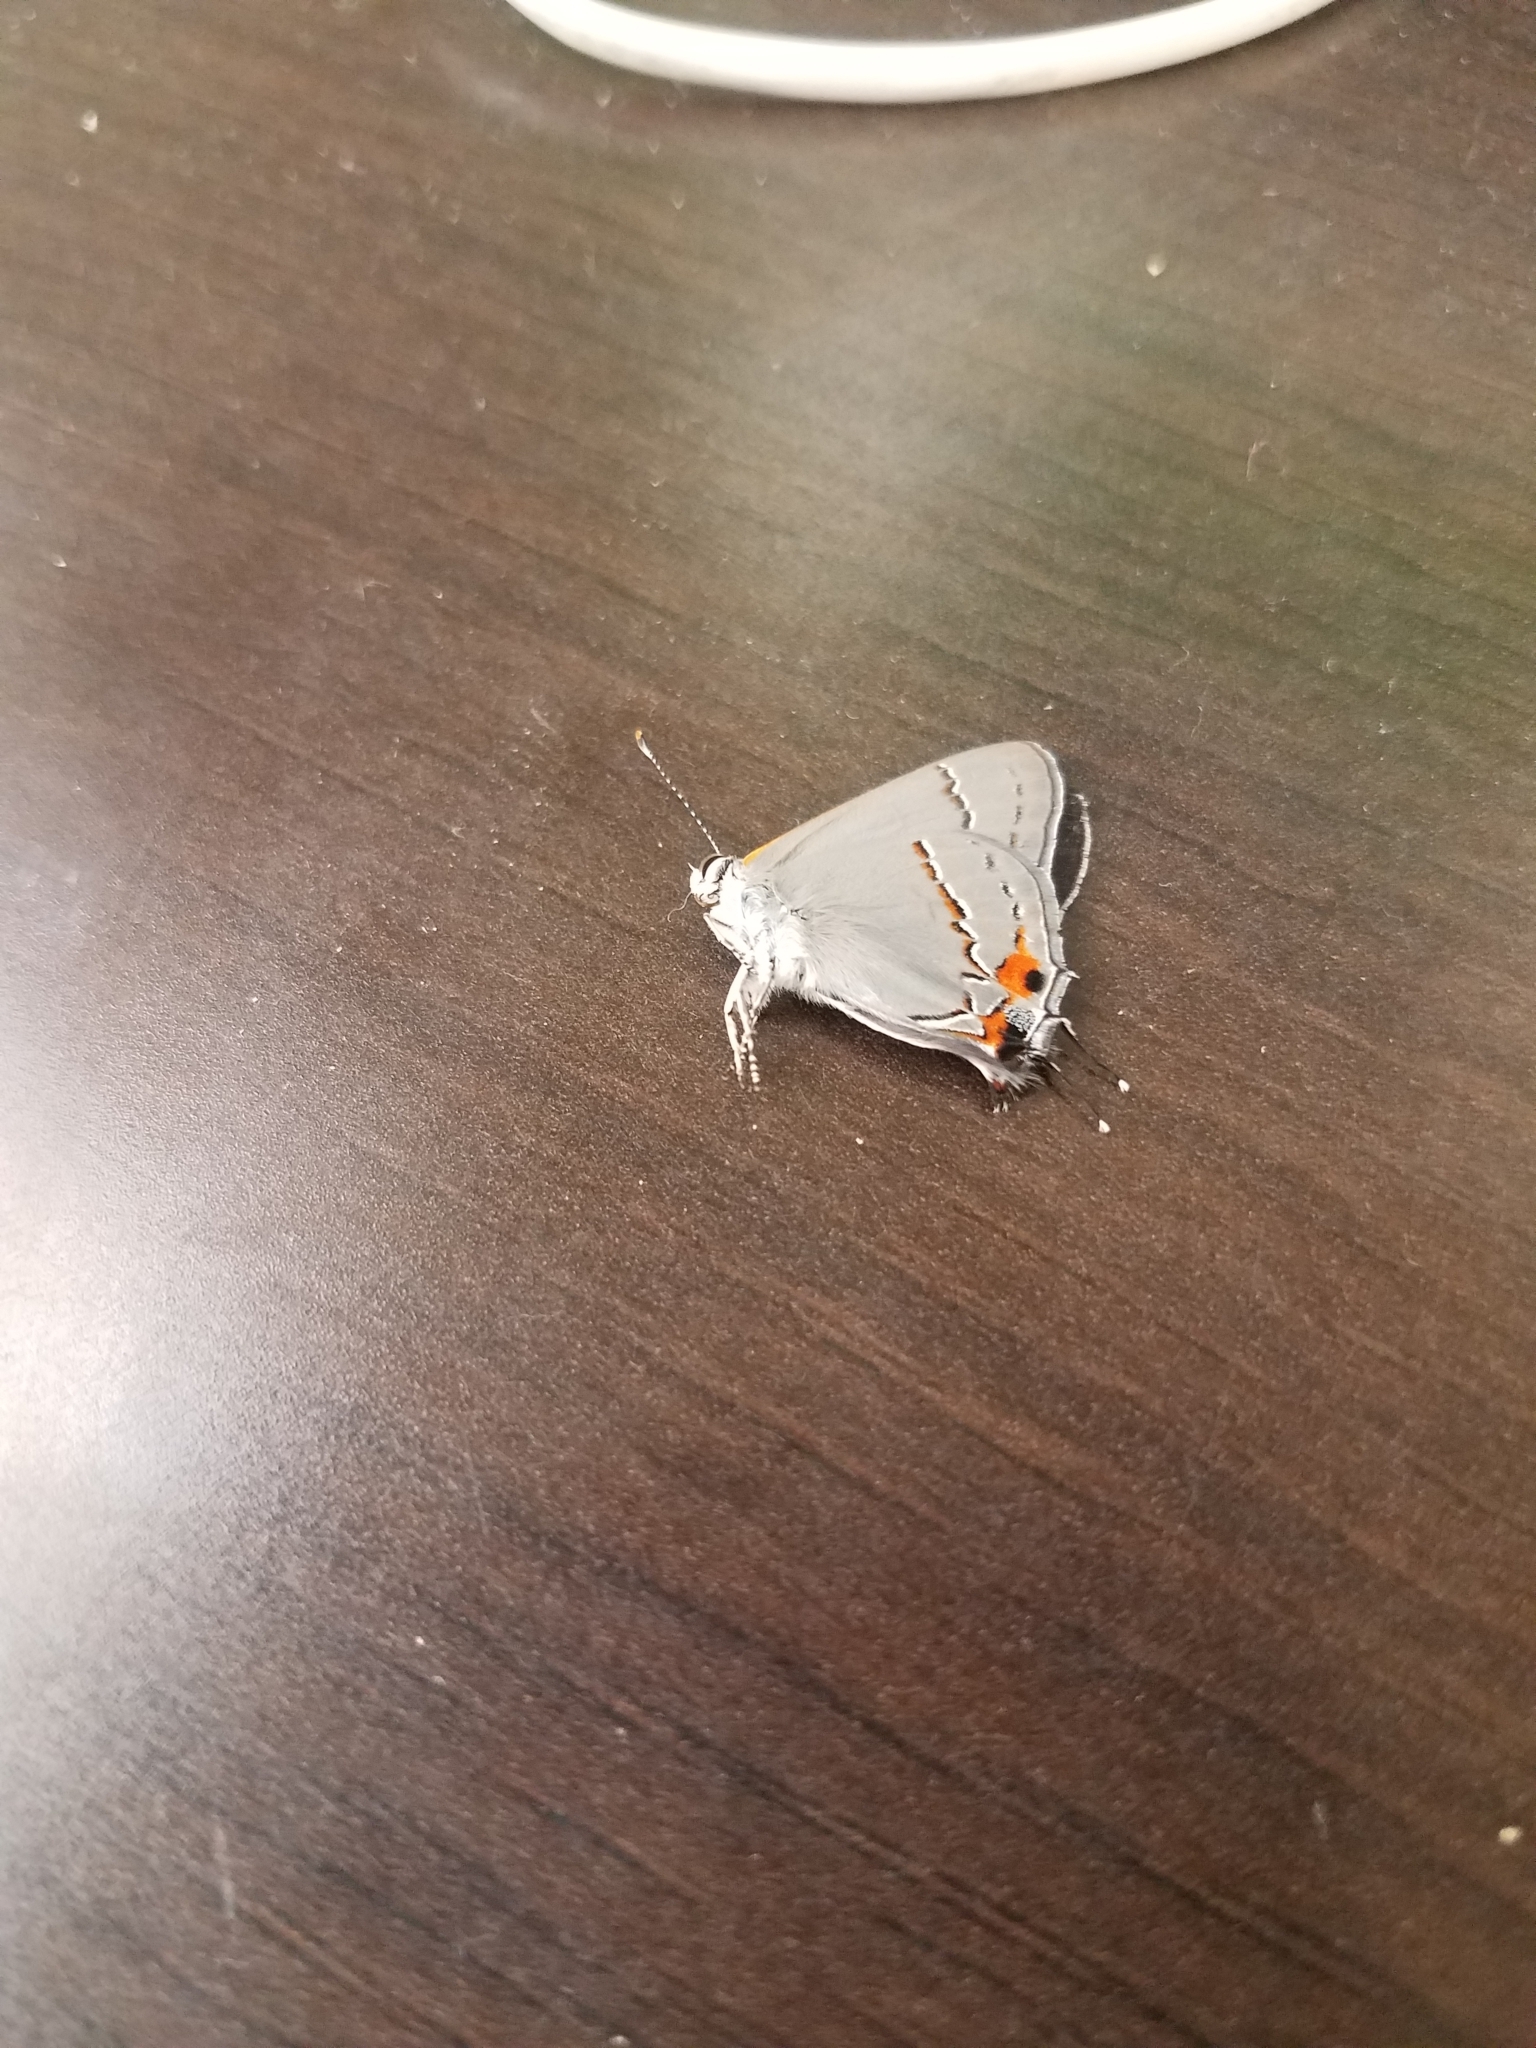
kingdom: Animalia
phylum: Arthropoda
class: Insecta
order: Lepidoptera
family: Lycaenidae
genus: Strymon
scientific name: Strymon melinus
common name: Gray hairstreak
